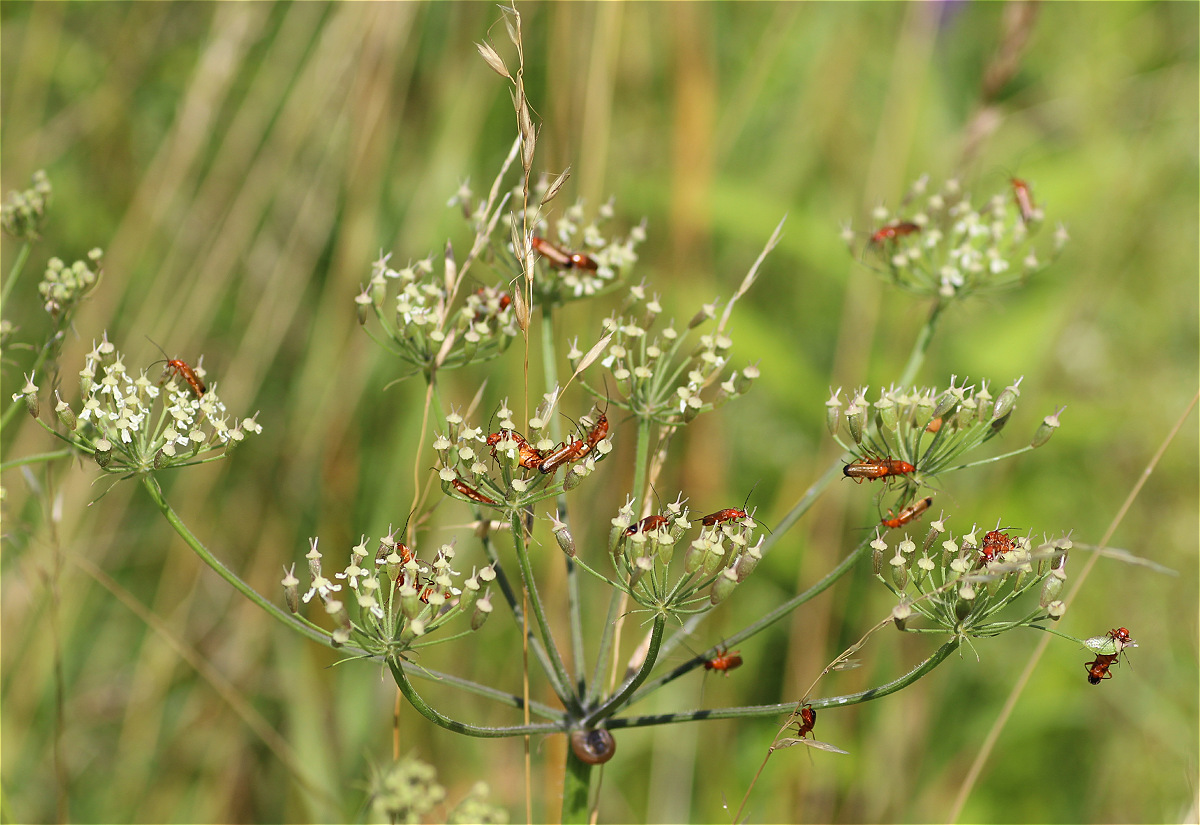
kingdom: Animalia
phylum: Arthropoda
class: Insecta
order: Coleoptera
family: Cantharidae
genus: Rhagonycha
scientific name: Rhagonycha fulva
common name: Common red soldier beetle
